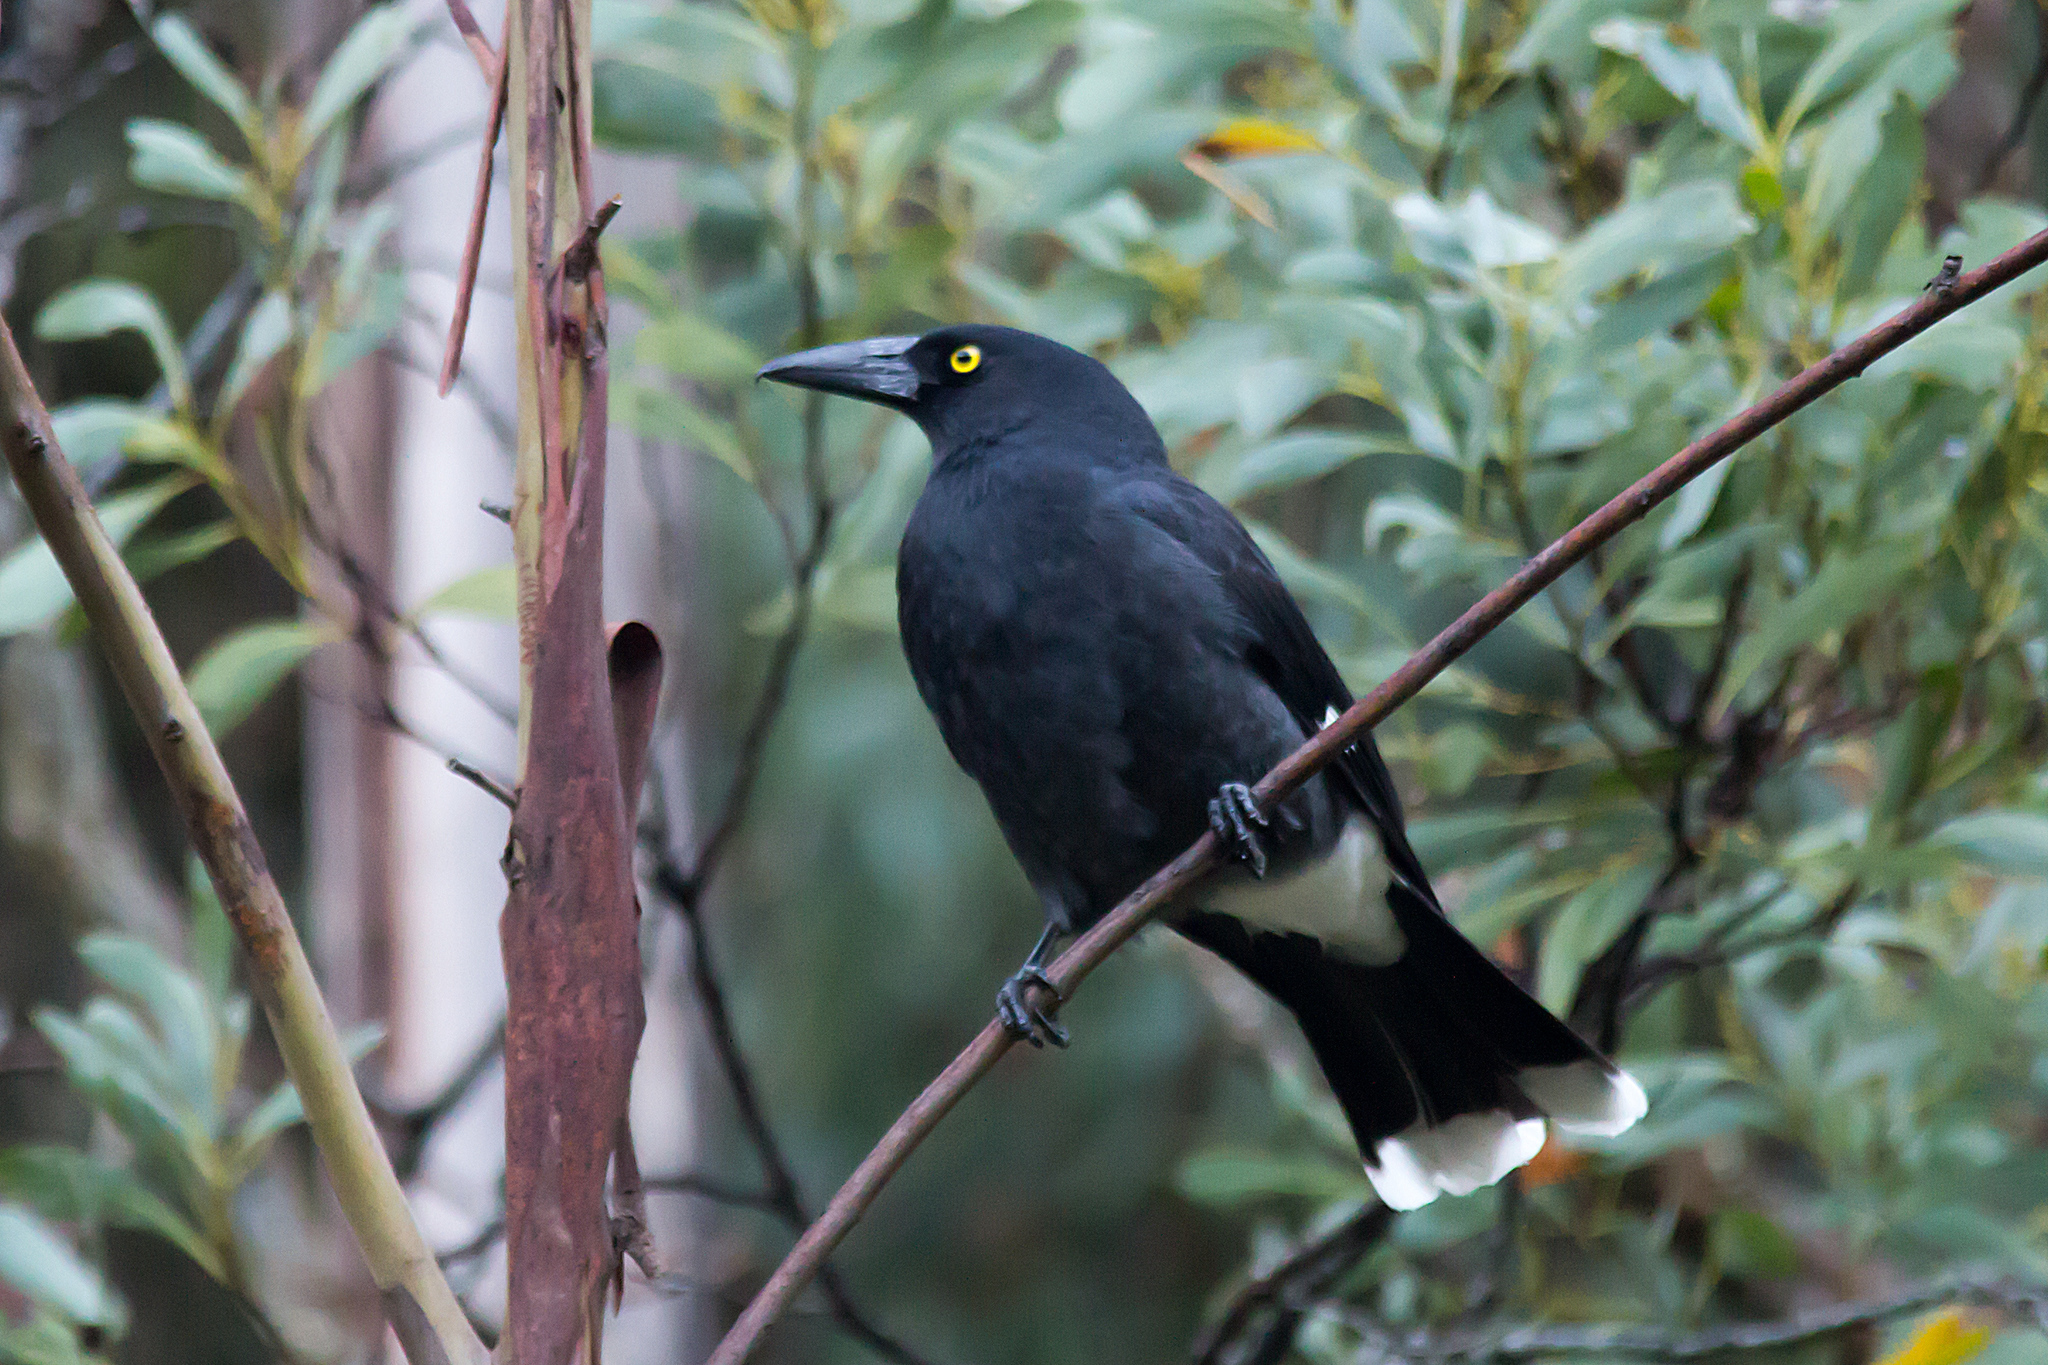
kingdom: Animalia
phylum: Chordata
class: Aves
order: Passeriformes
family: Cracticidae
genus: Strepera
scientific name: Strepera graculina
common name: Pied currawong
